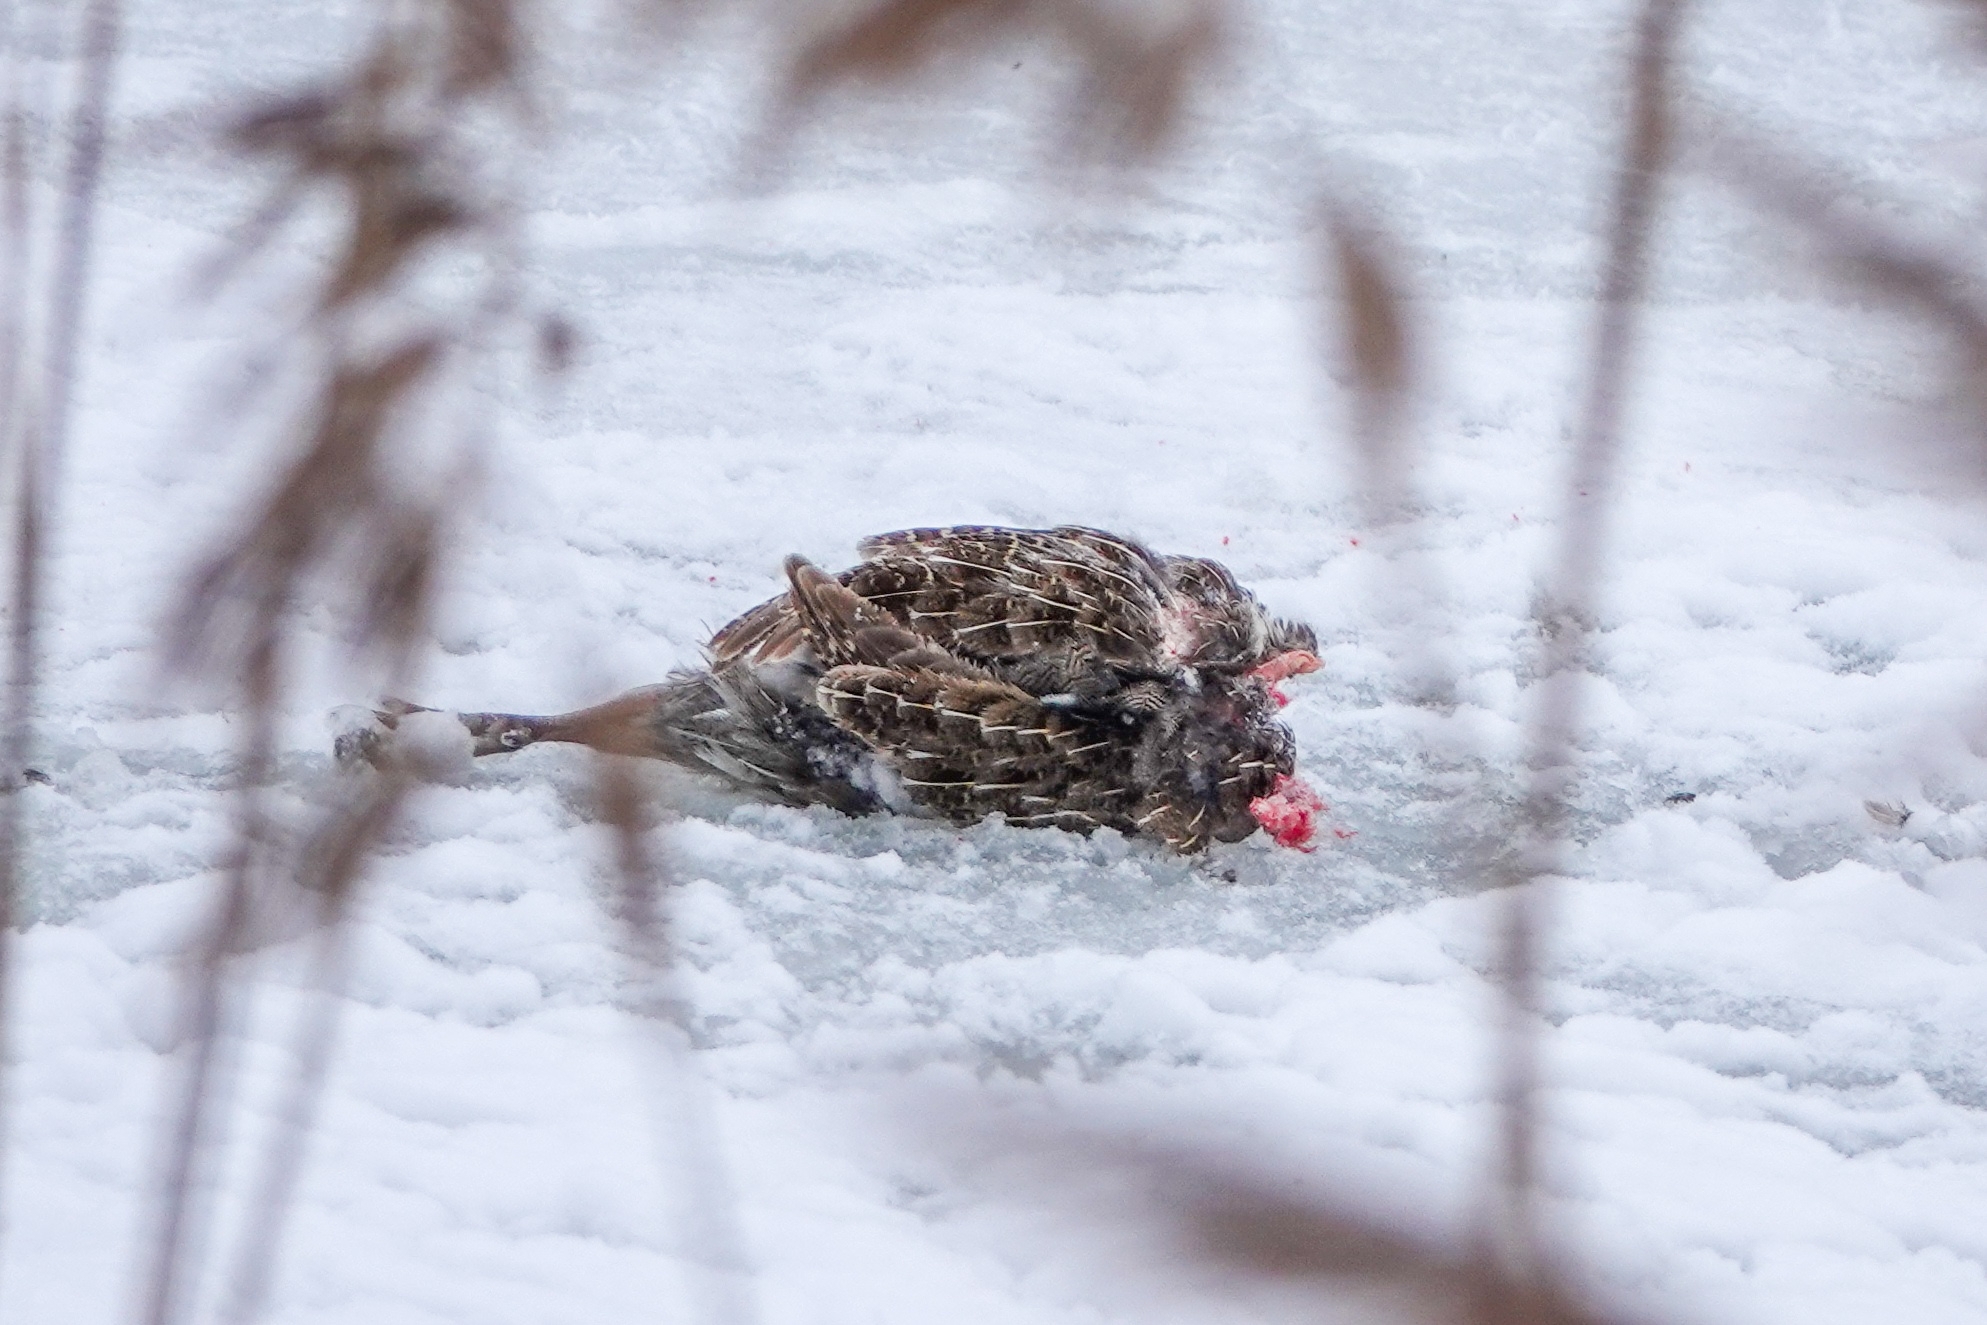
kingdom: Animalia
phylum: Chordata
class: Aves
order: Galliformes
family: Phasianidae
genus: Perdix
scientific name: Perdix perdix
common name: Grey partridge
